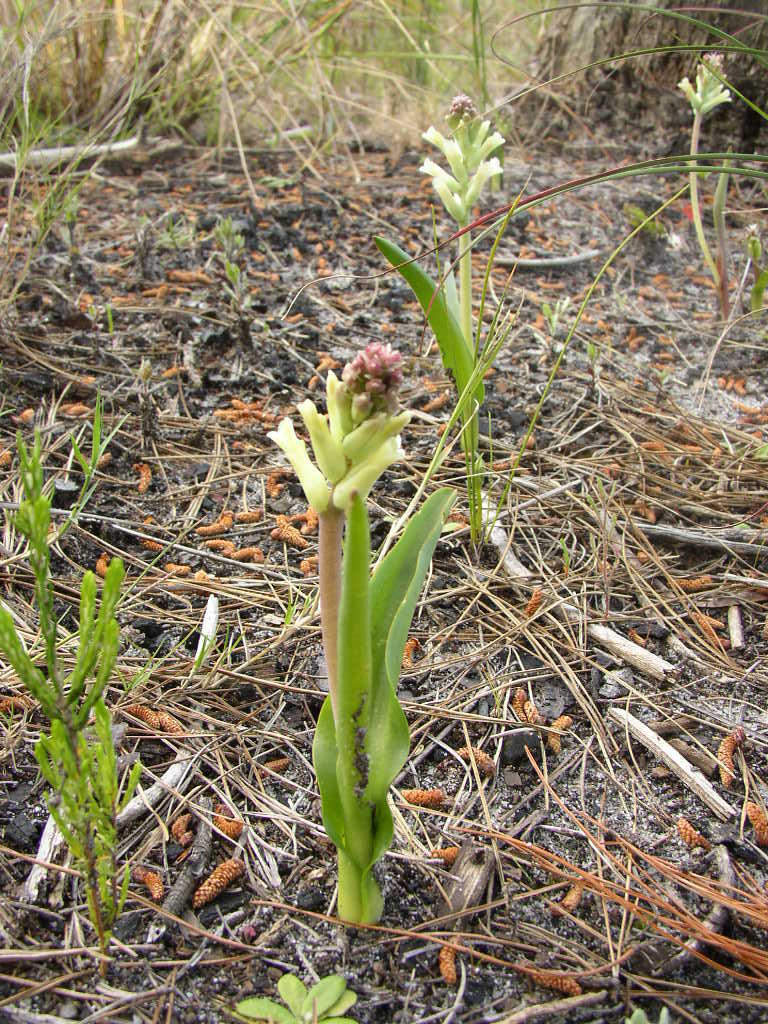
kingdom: Plantae
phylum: Tracheophyta
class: Liliopsida
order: Asparagales
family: Asparagaceae
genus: Lachenalia
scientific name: Lachenalia orchioides
